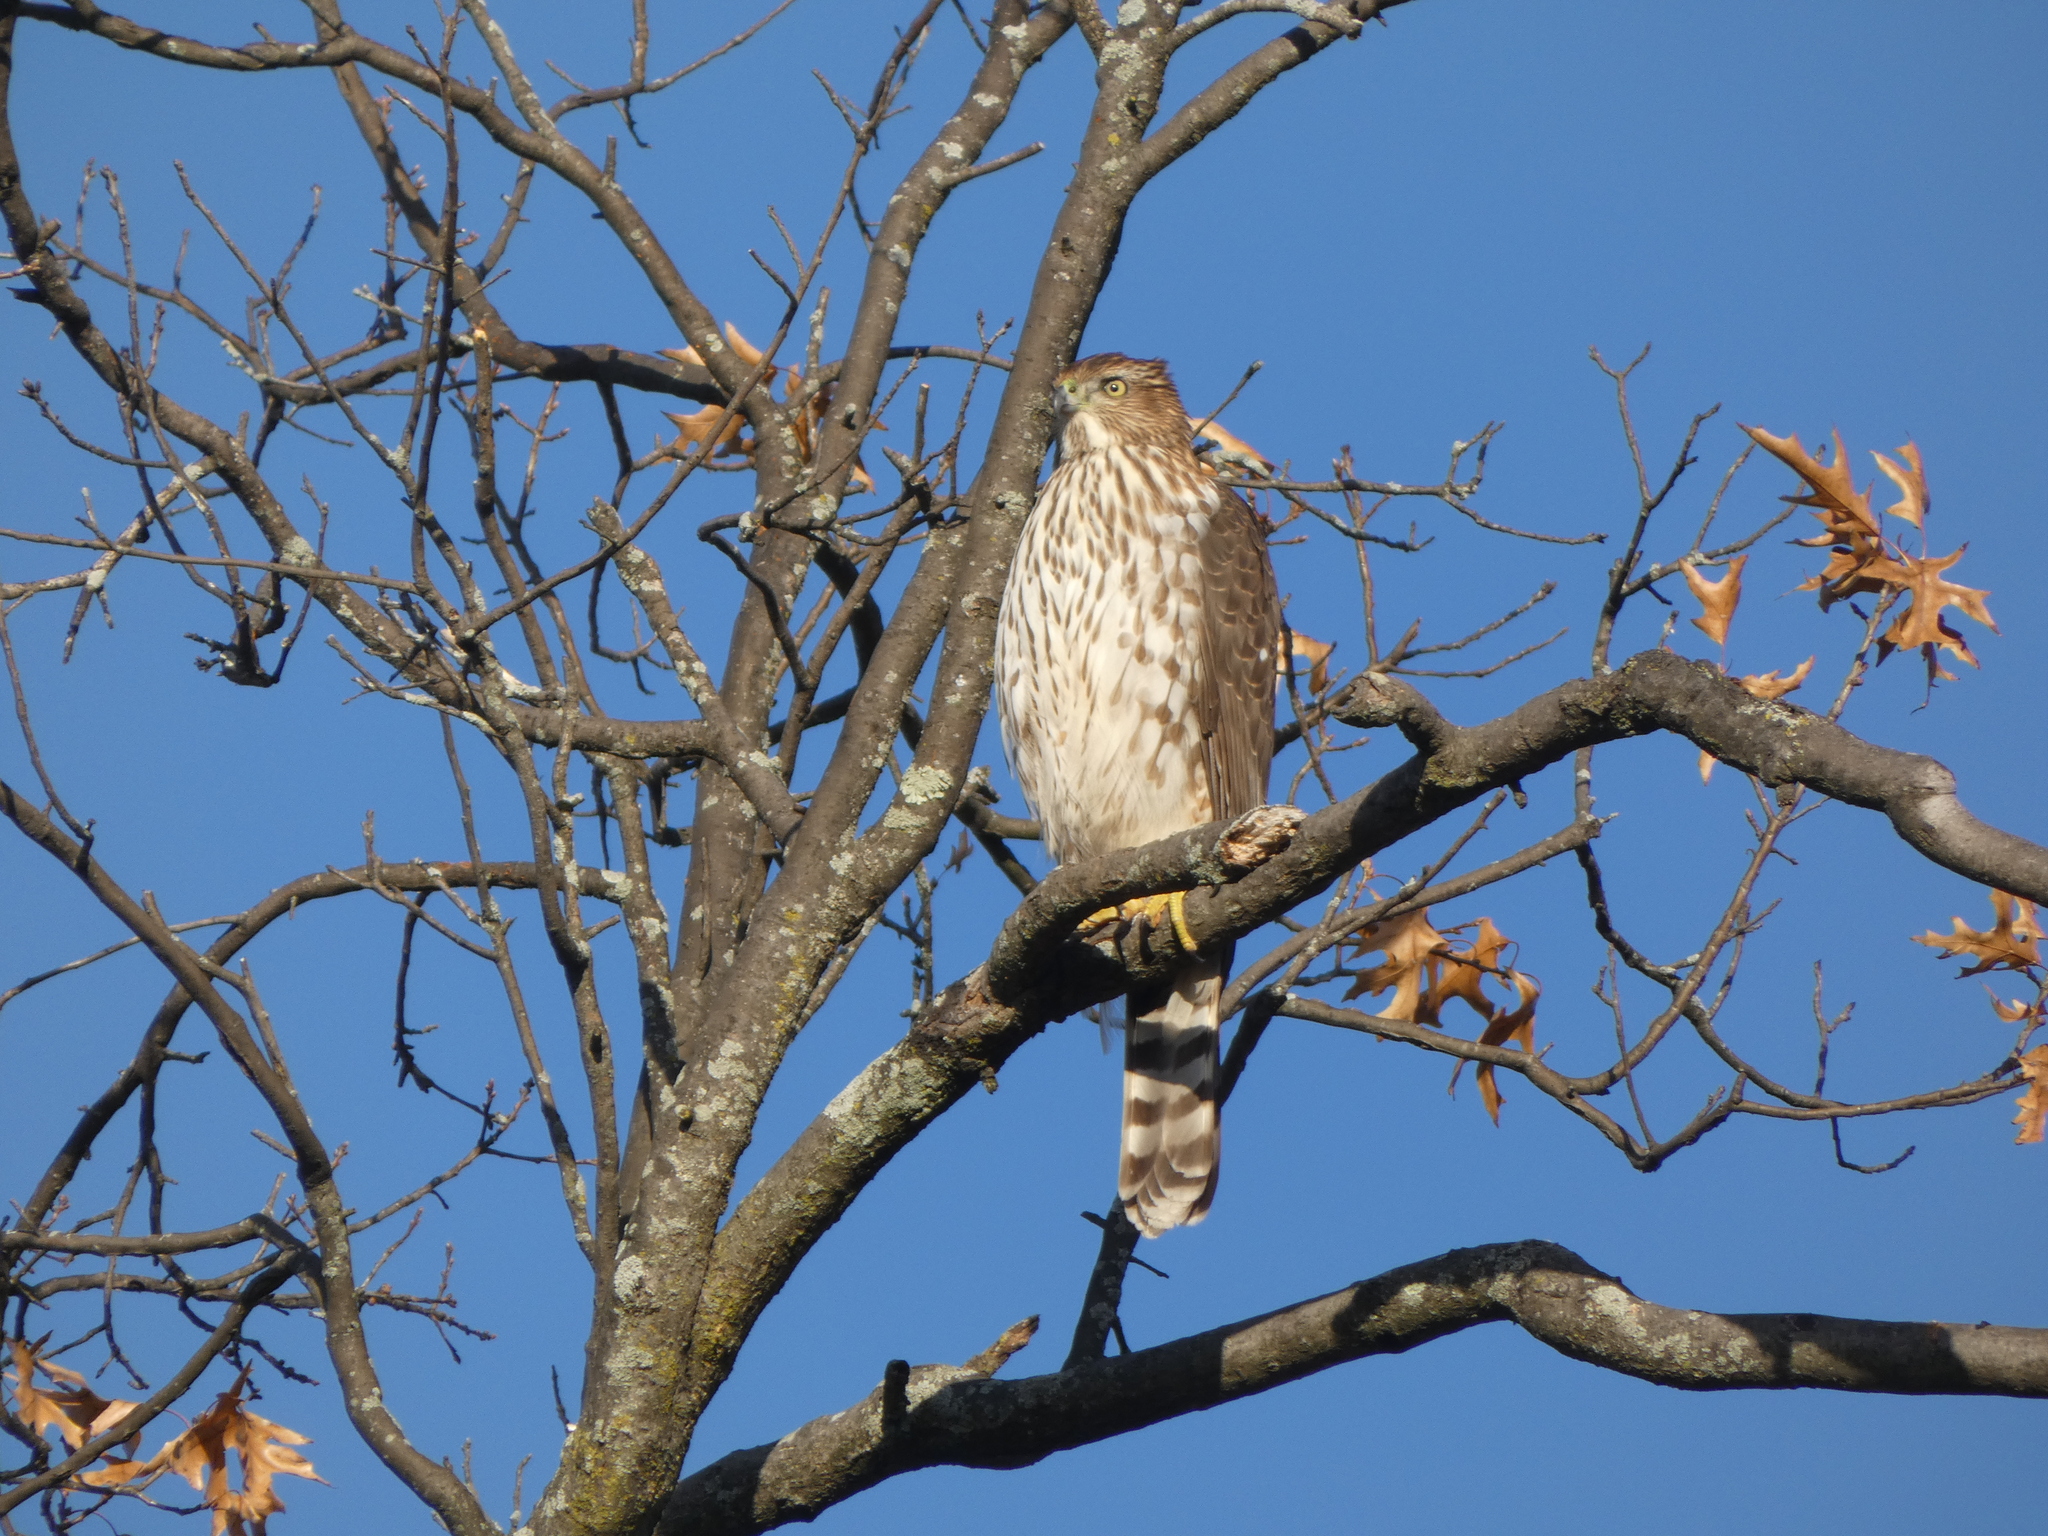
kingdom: Animalia
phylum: Chordata
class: Aves
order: Accipitriformes
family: Accipitridae
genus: Accipiter
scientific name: Accipiter cooperii
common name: Cooper's hawk
